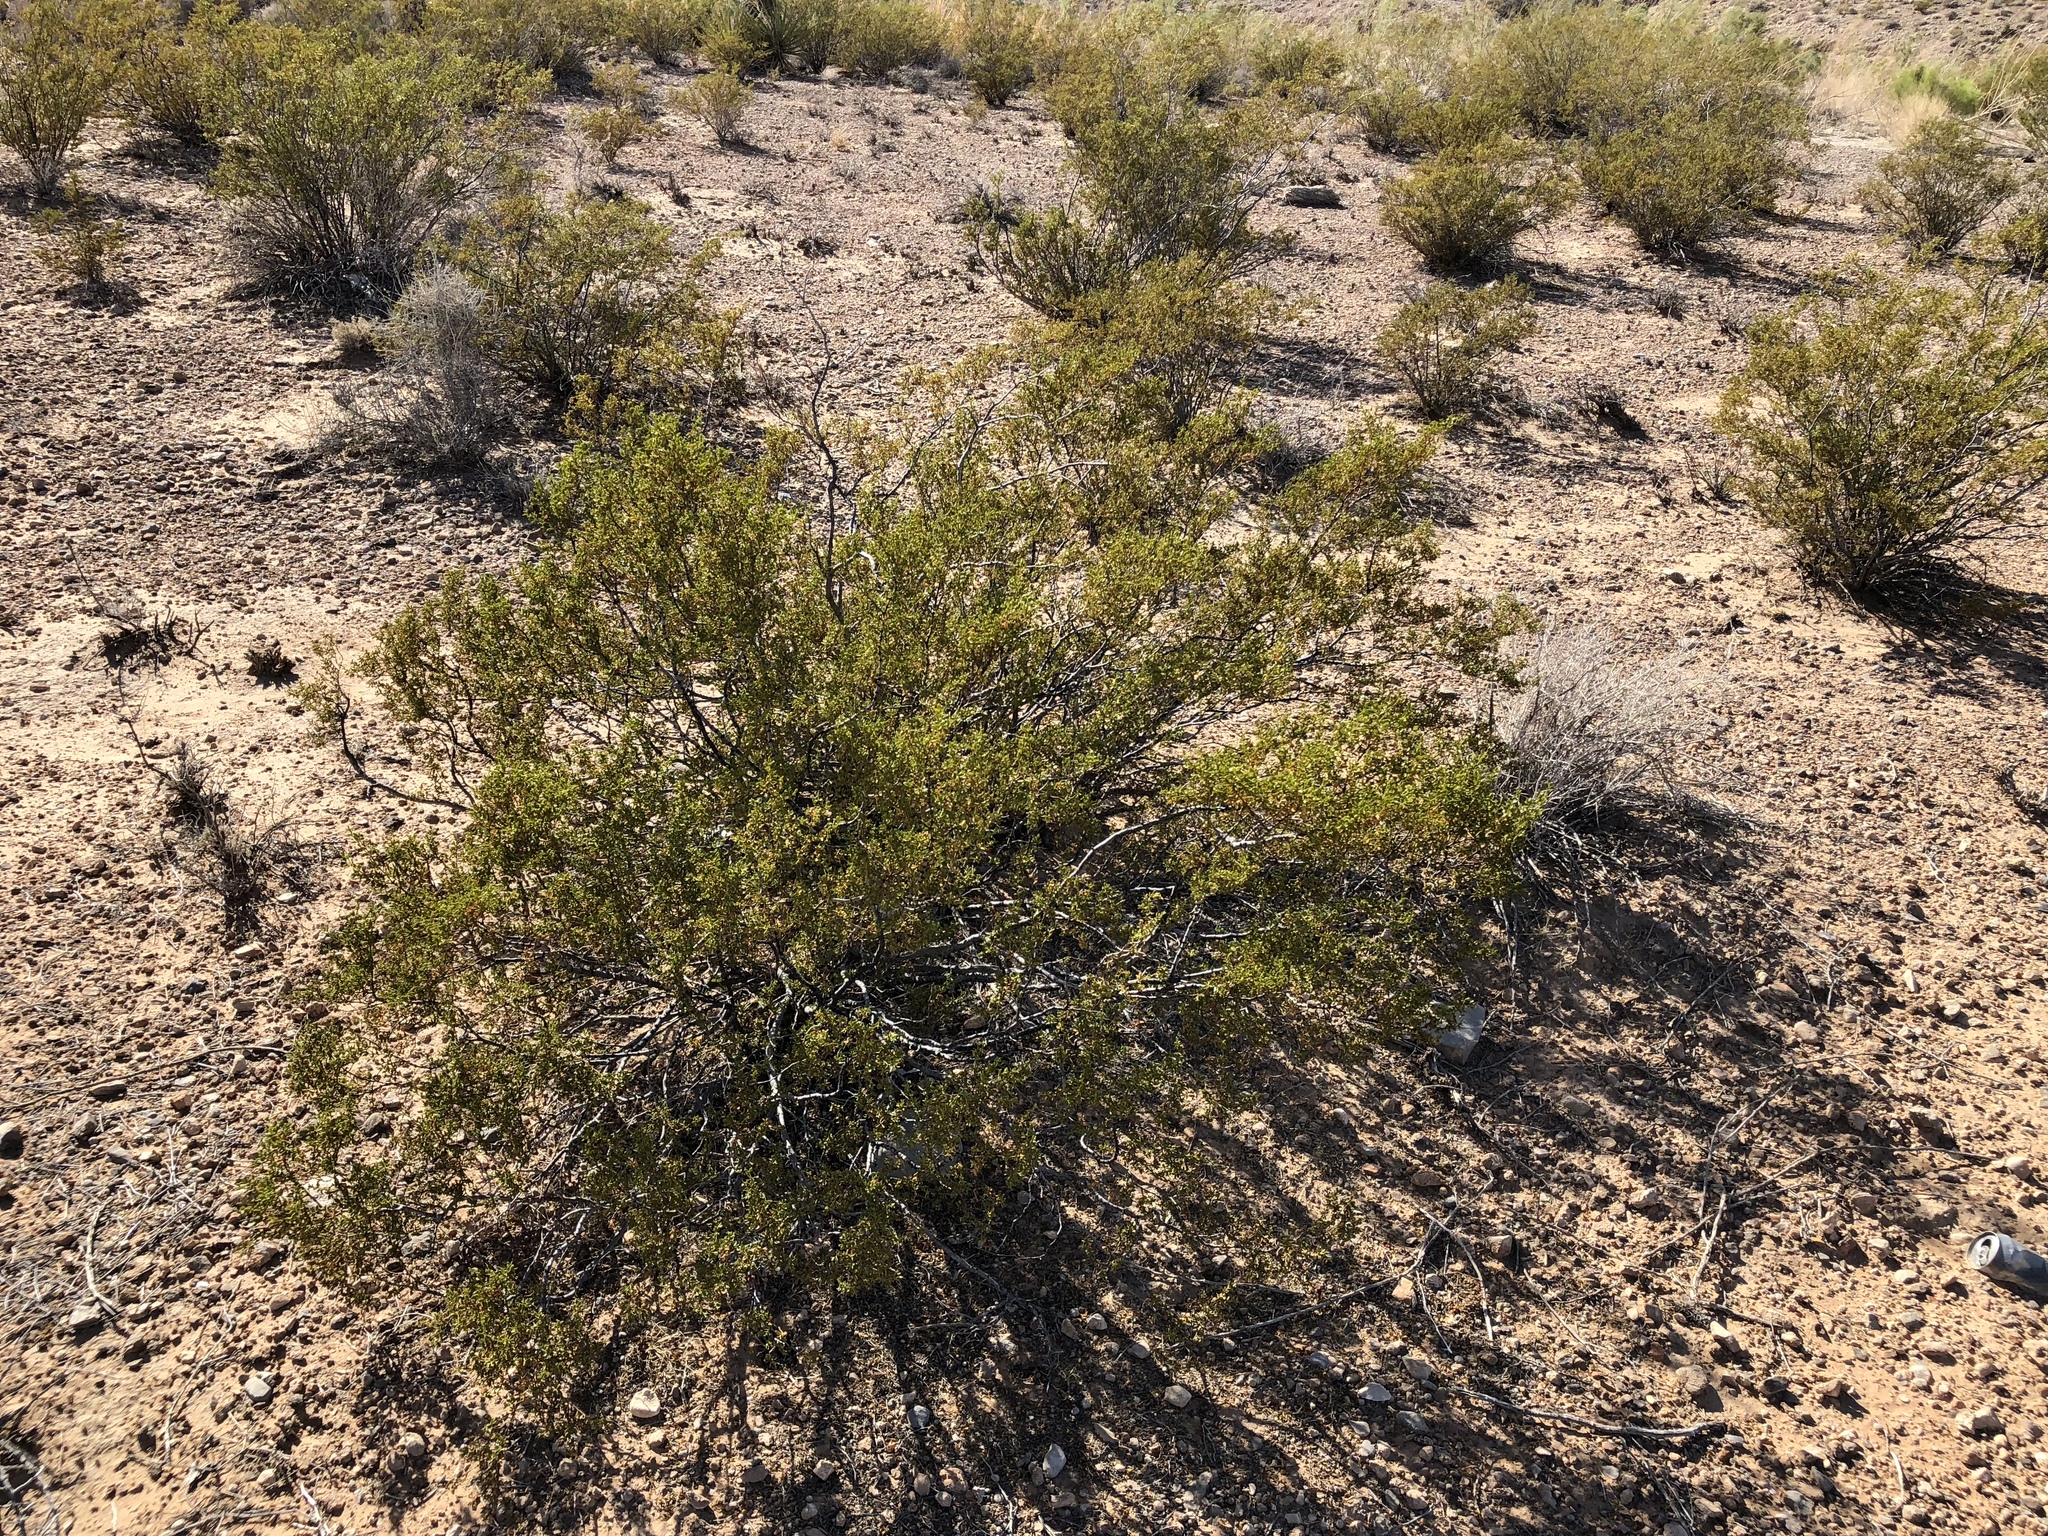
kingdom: Plantae
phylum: Tracheophyta
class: Magnoliopsida
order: Zygophyllales
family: Zygophyllaceae
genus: Larrea
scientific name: Larrea tridentata
